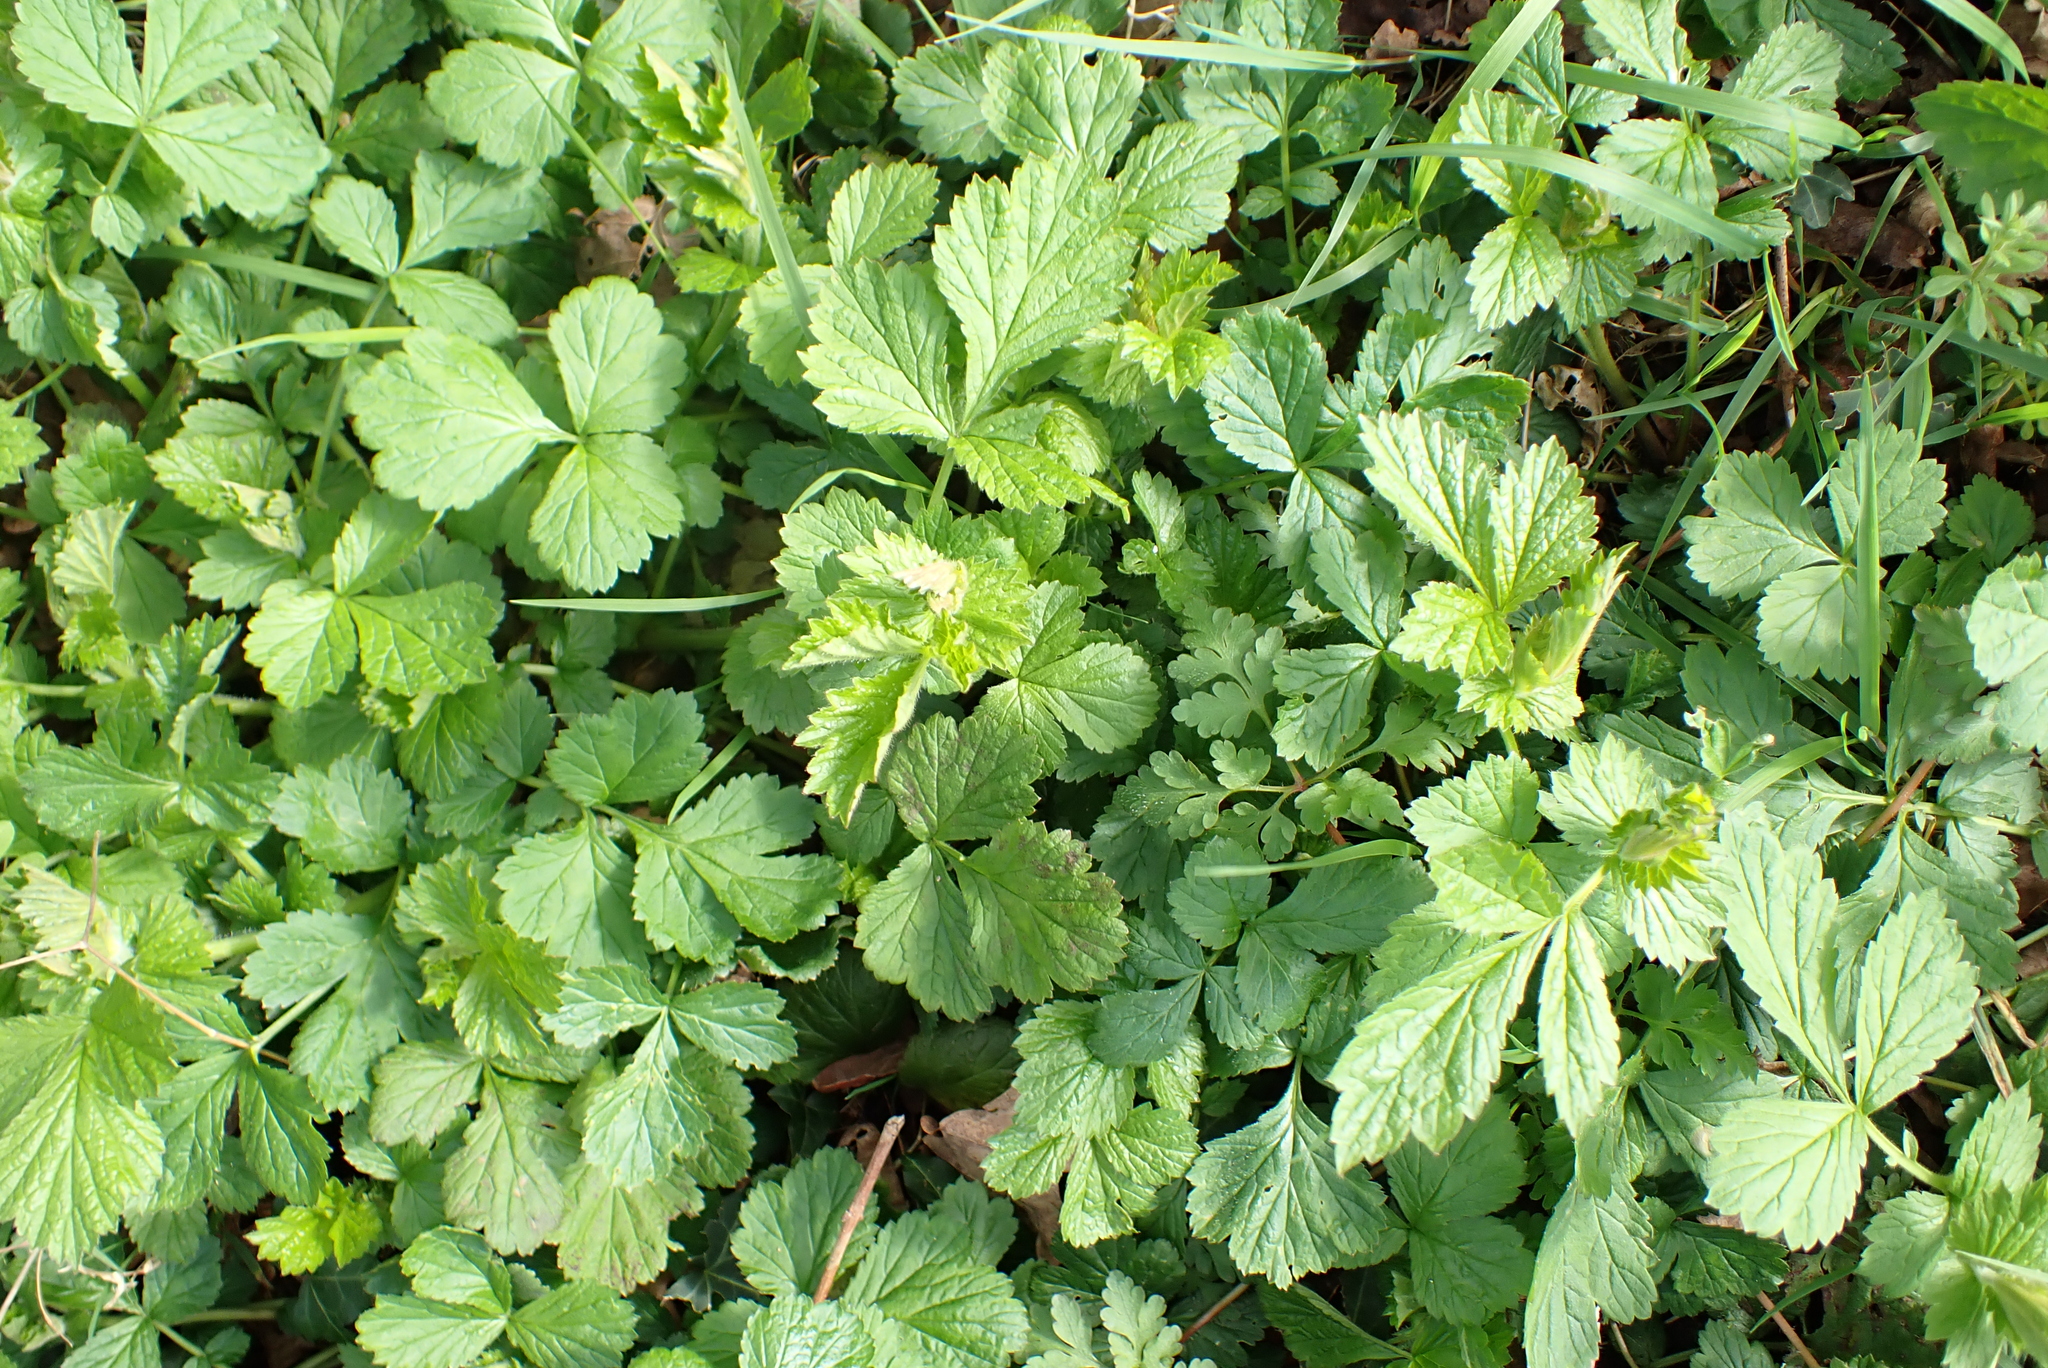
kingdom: Plantae
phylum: Tracheophyta
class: Magnoliopsida
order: Rosales
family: Rosaceae
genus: Geum
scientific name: Geum urbanum
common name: Wood avens
